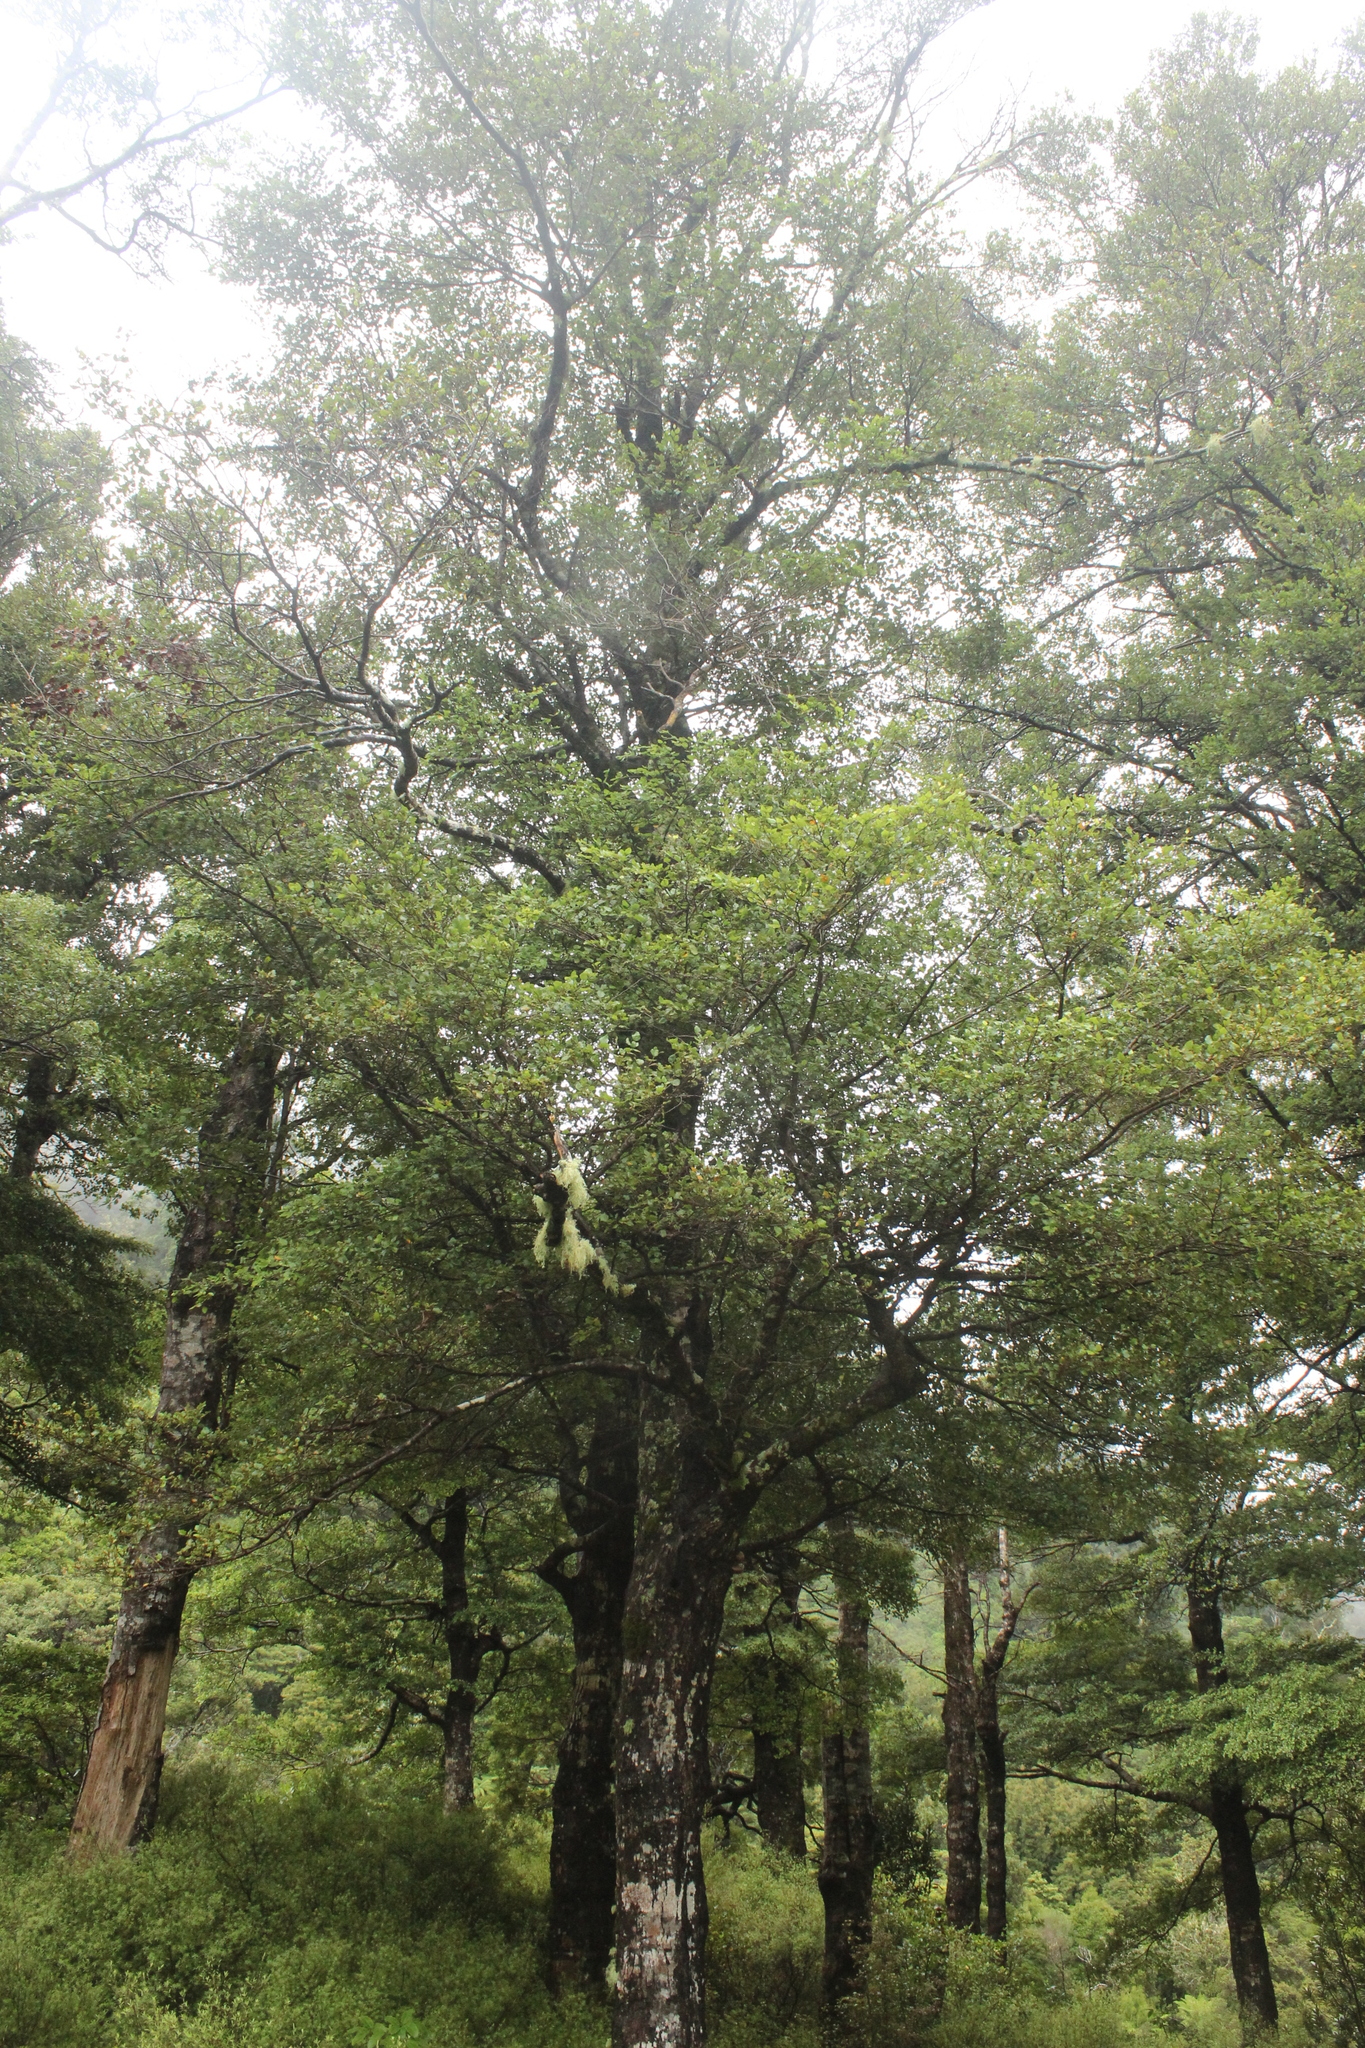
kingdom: Plantae
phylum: Tracheophyta
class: Magnoliopsida
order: Fagales
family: Nothofagaceae
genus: Nothofagus
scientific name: Nothofagus fusca
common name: Red beech
